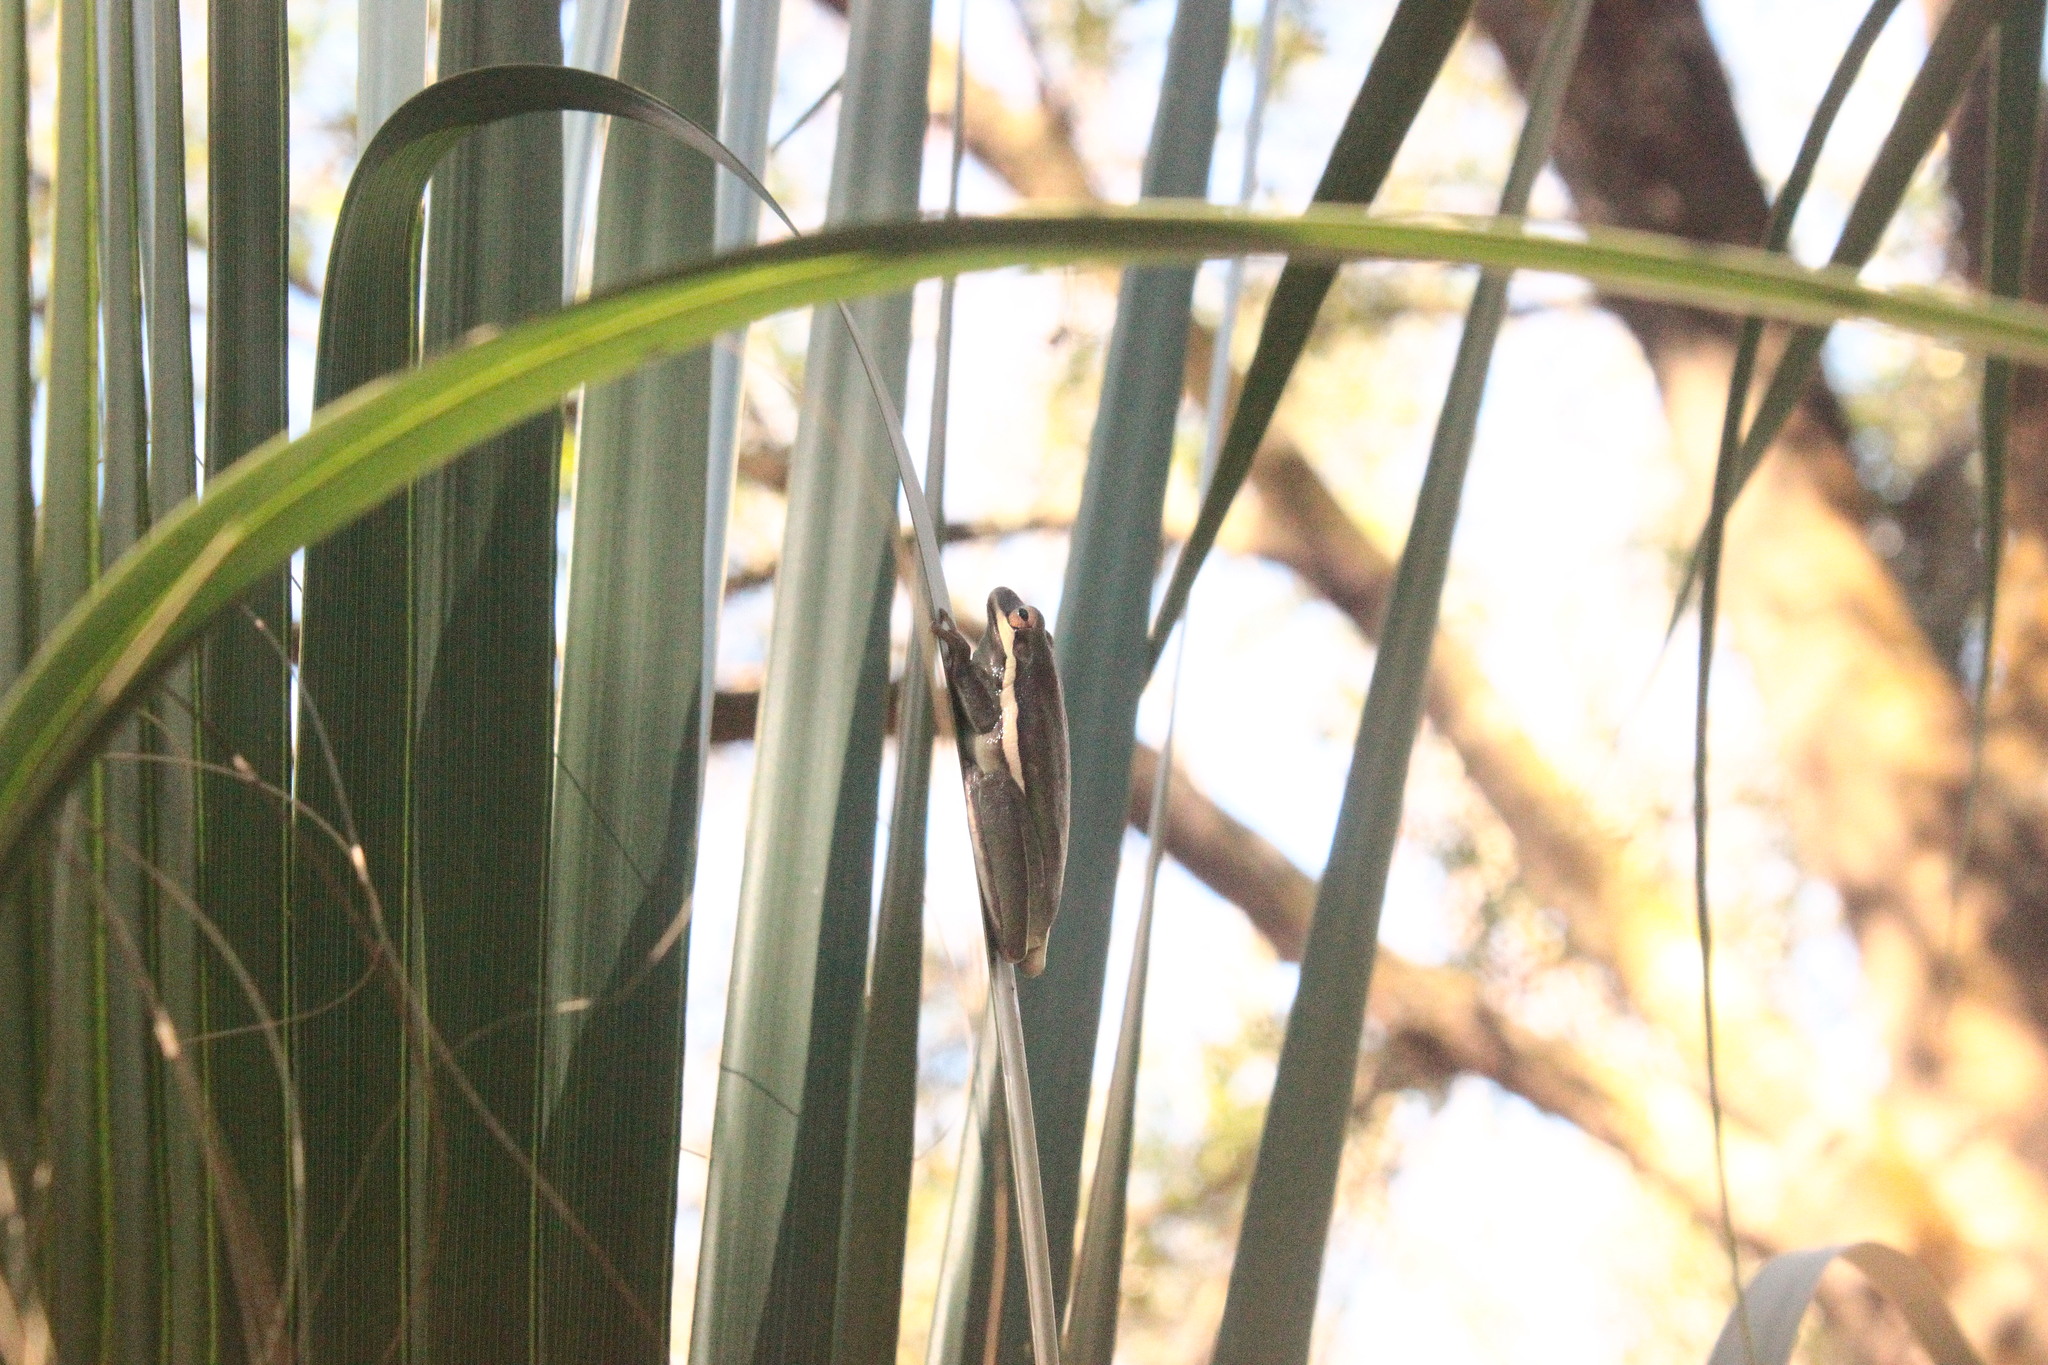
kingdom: Animalia
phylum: Chordata
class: Amphibia
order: Anura
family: Hylidae
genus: Dryophytes
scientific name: Dryophytes cinereus
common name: Green treefrog
